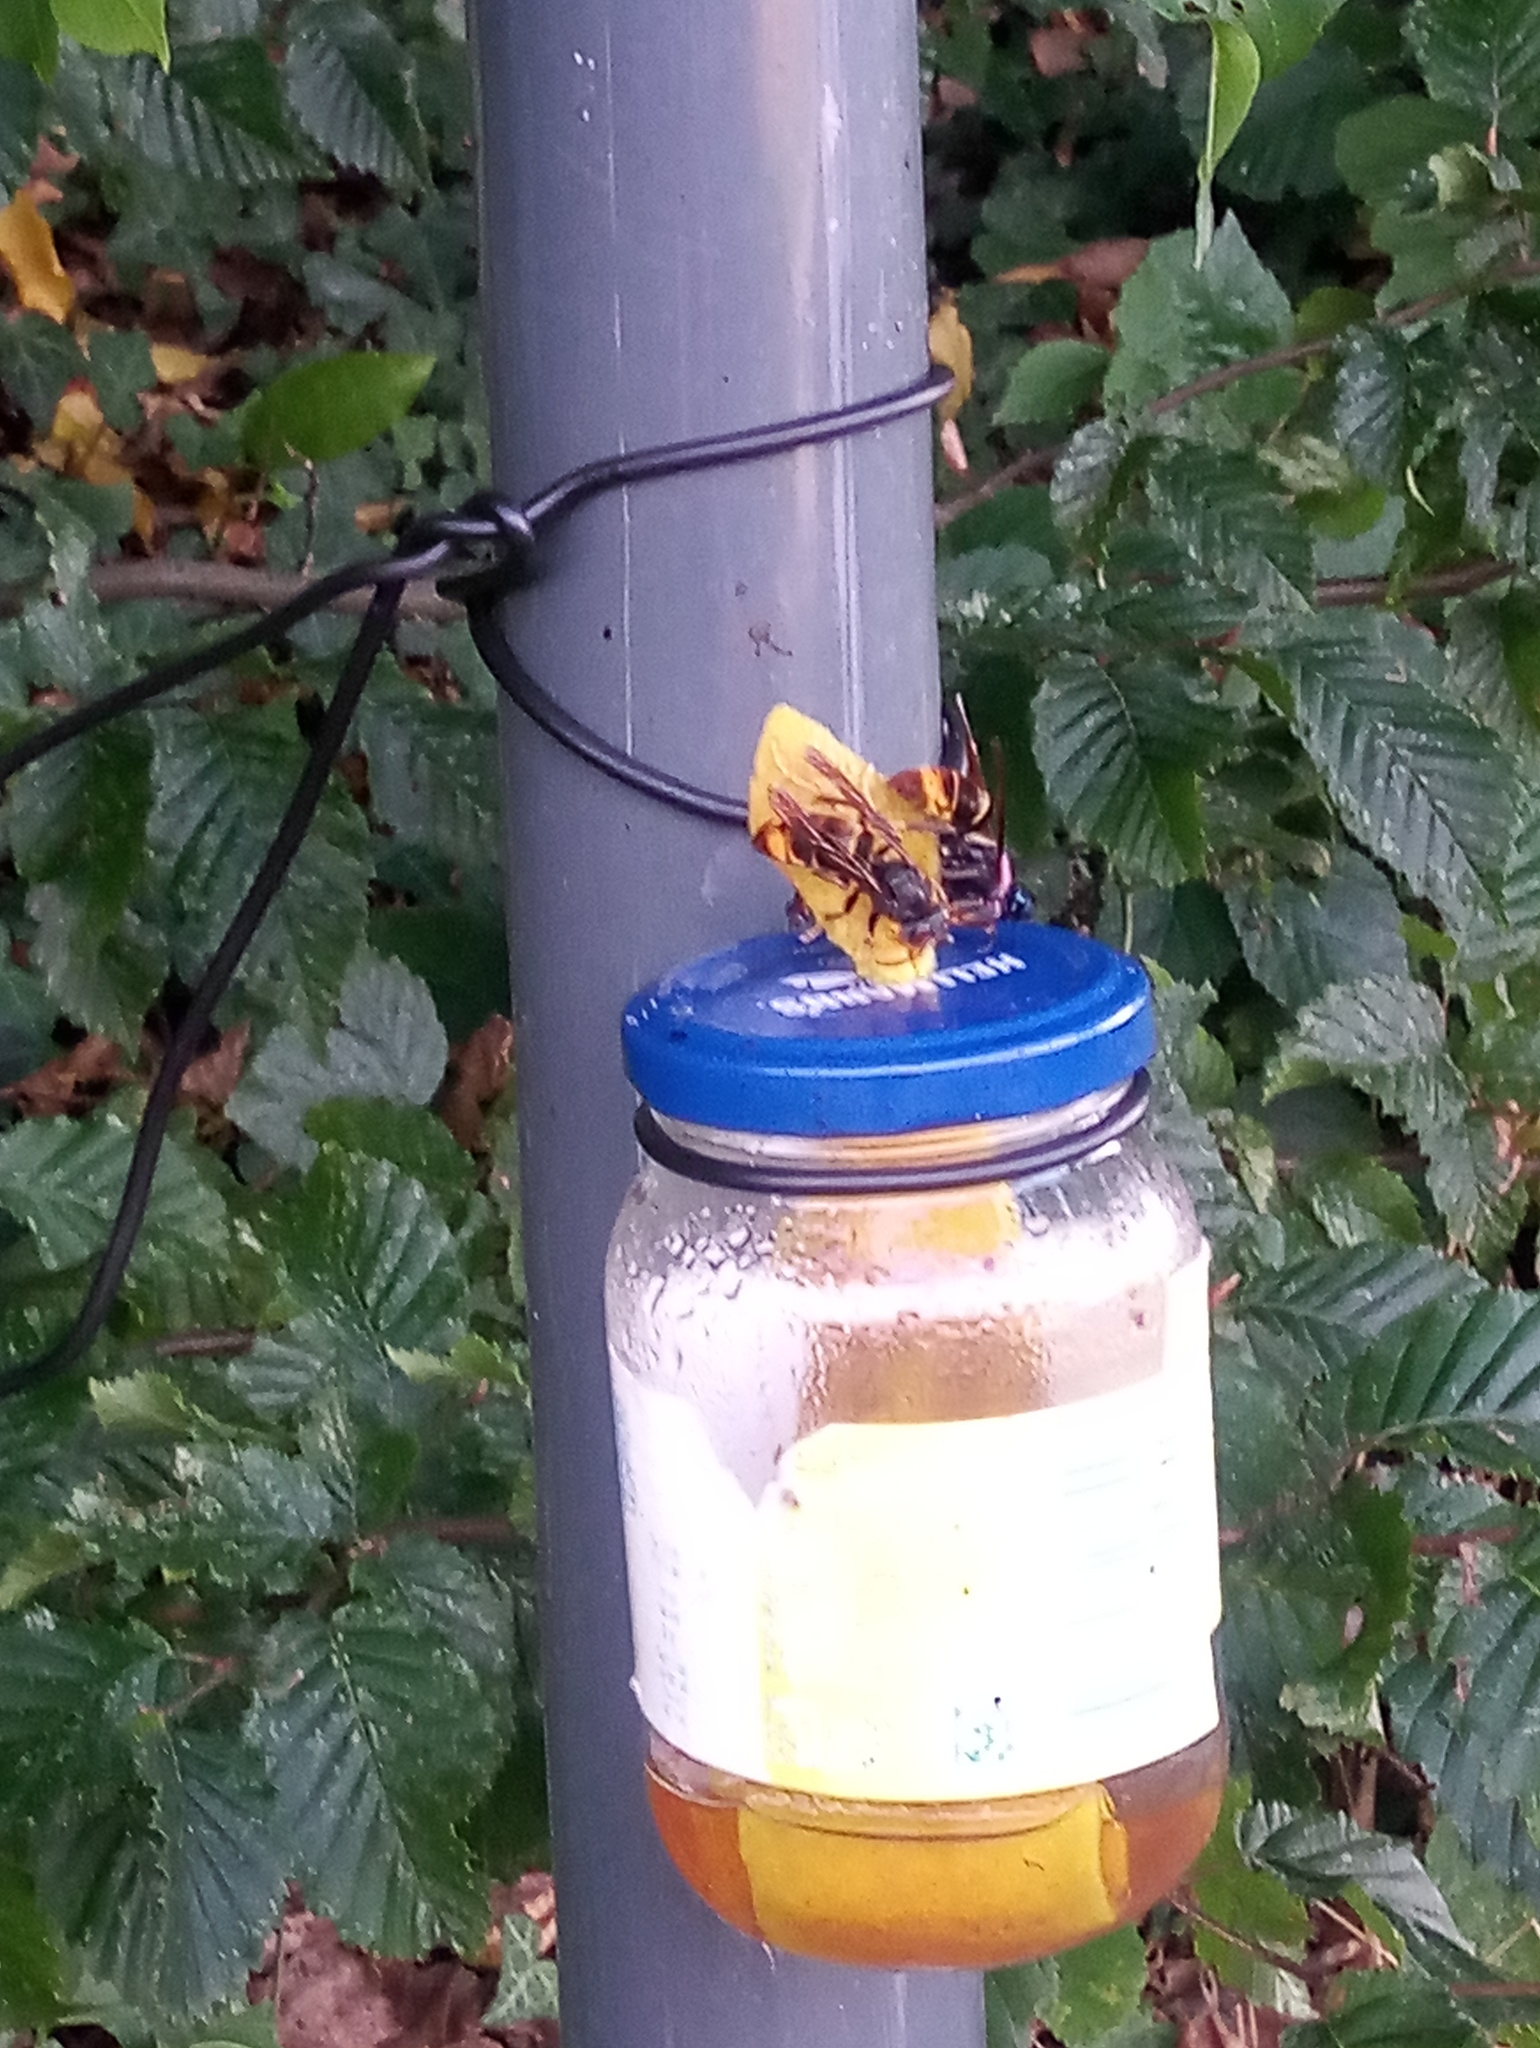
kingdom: Animalia
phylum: Arthropoda
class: Insecta
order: Hymenoptera
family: Vespidae
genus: Vespa
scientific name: Vespa velutina
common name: Asian hornet
